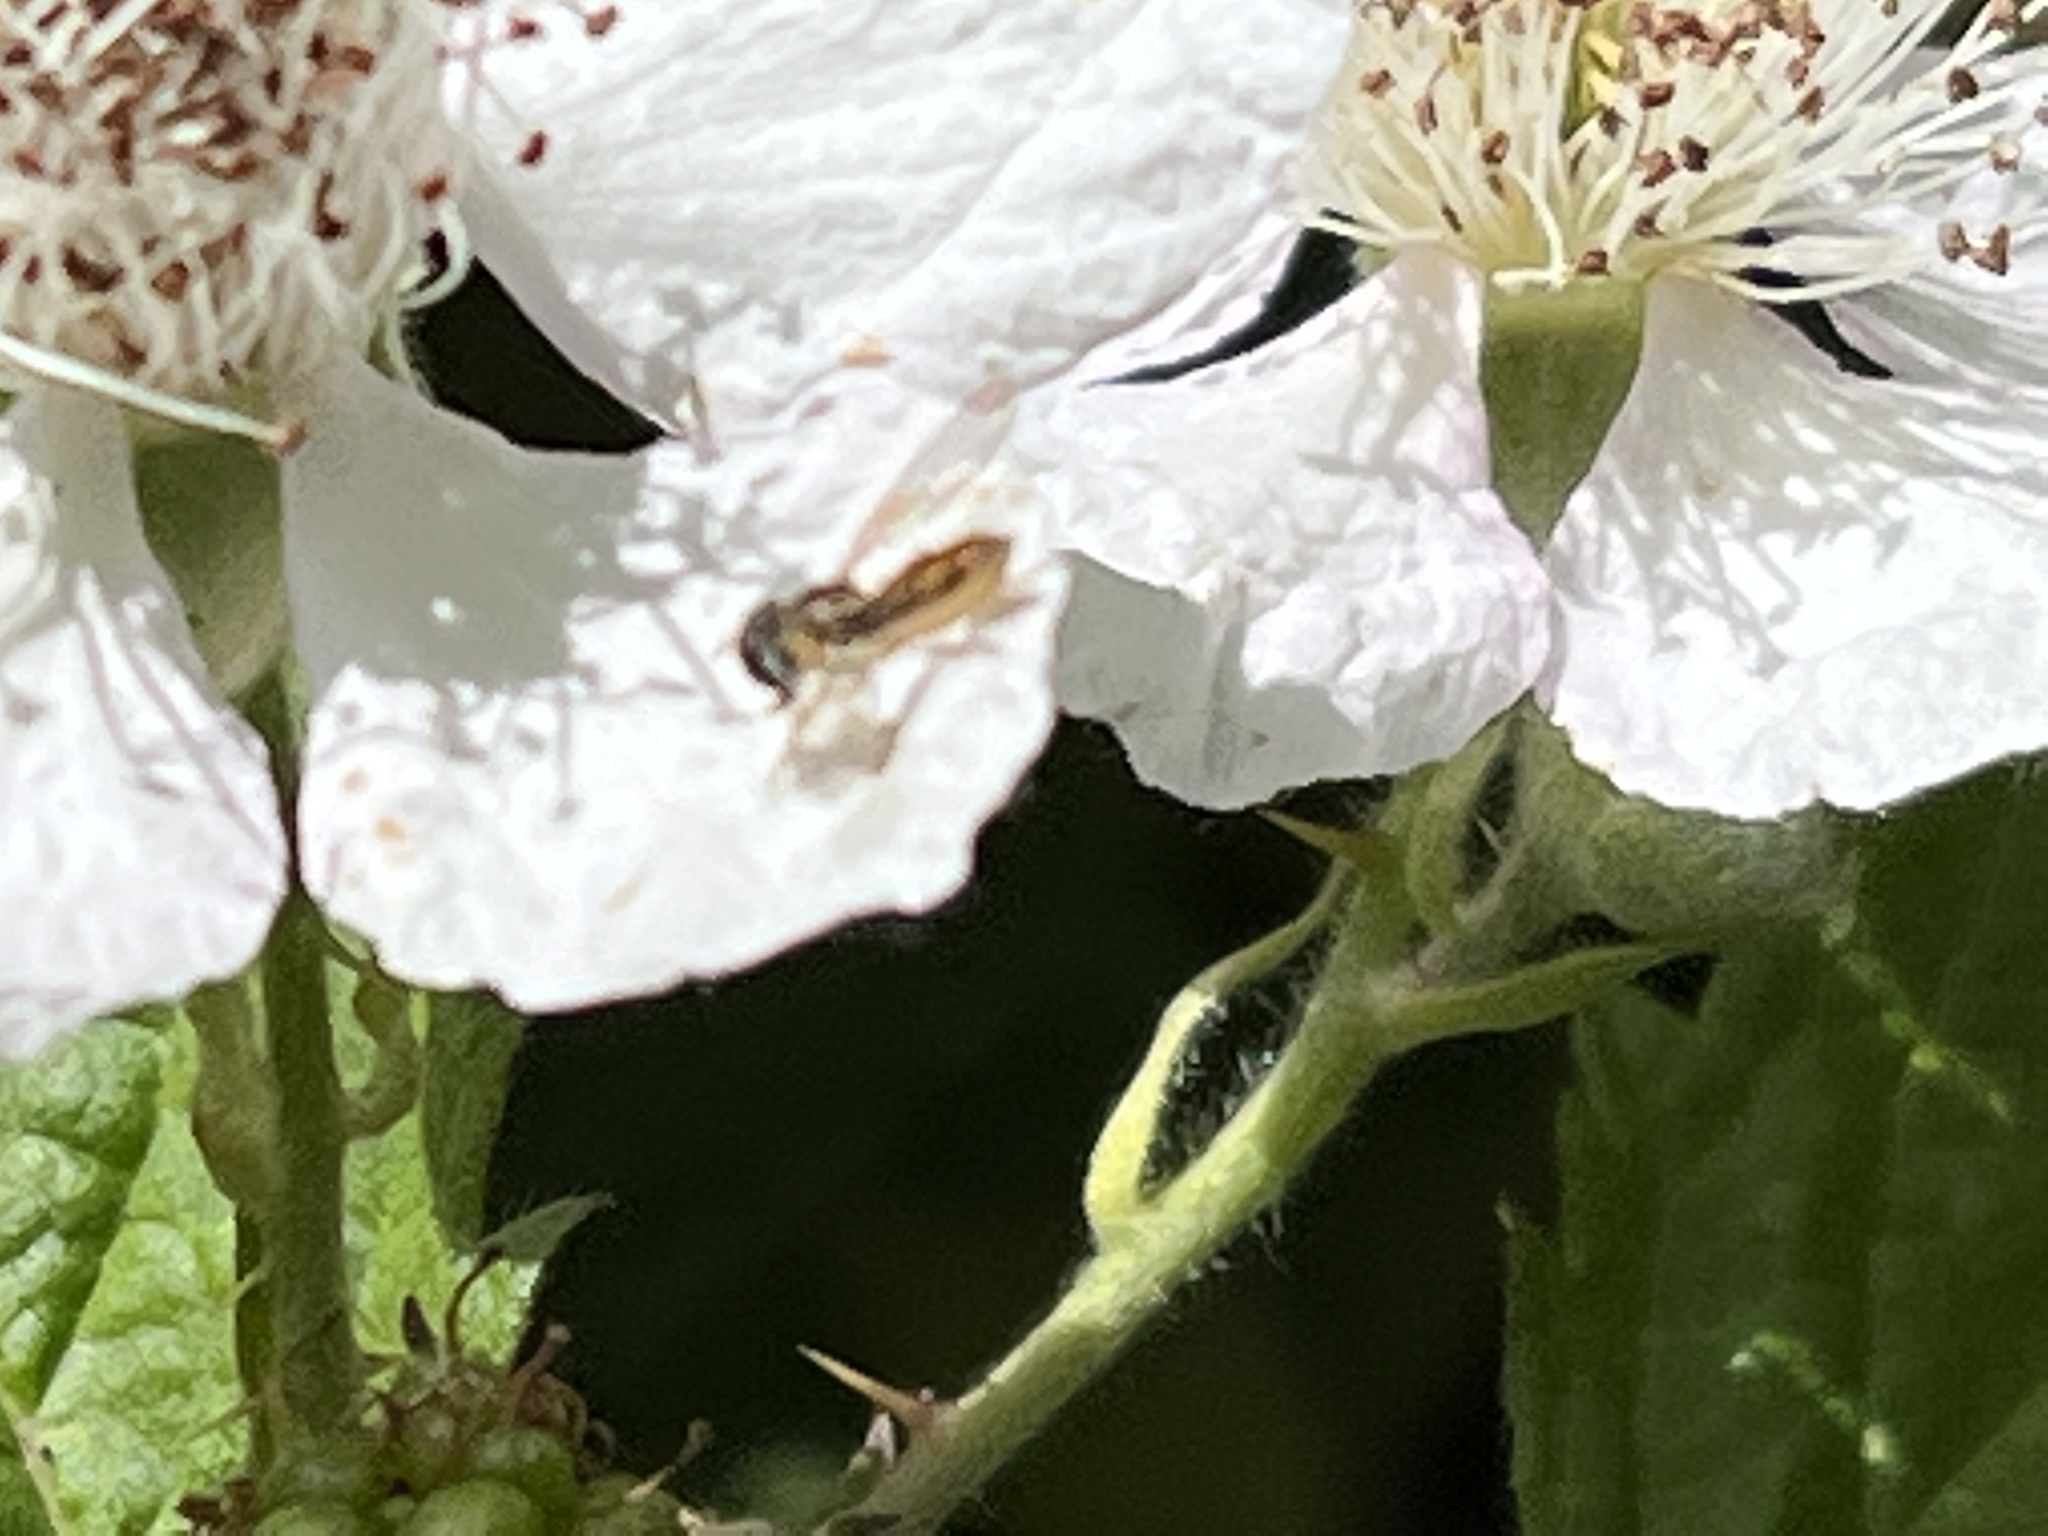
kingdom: Animalia
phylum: Arthropoda
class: Insecta
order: Diptera
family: Syrphidae
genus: Toxomerus
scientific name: Toxomerus
